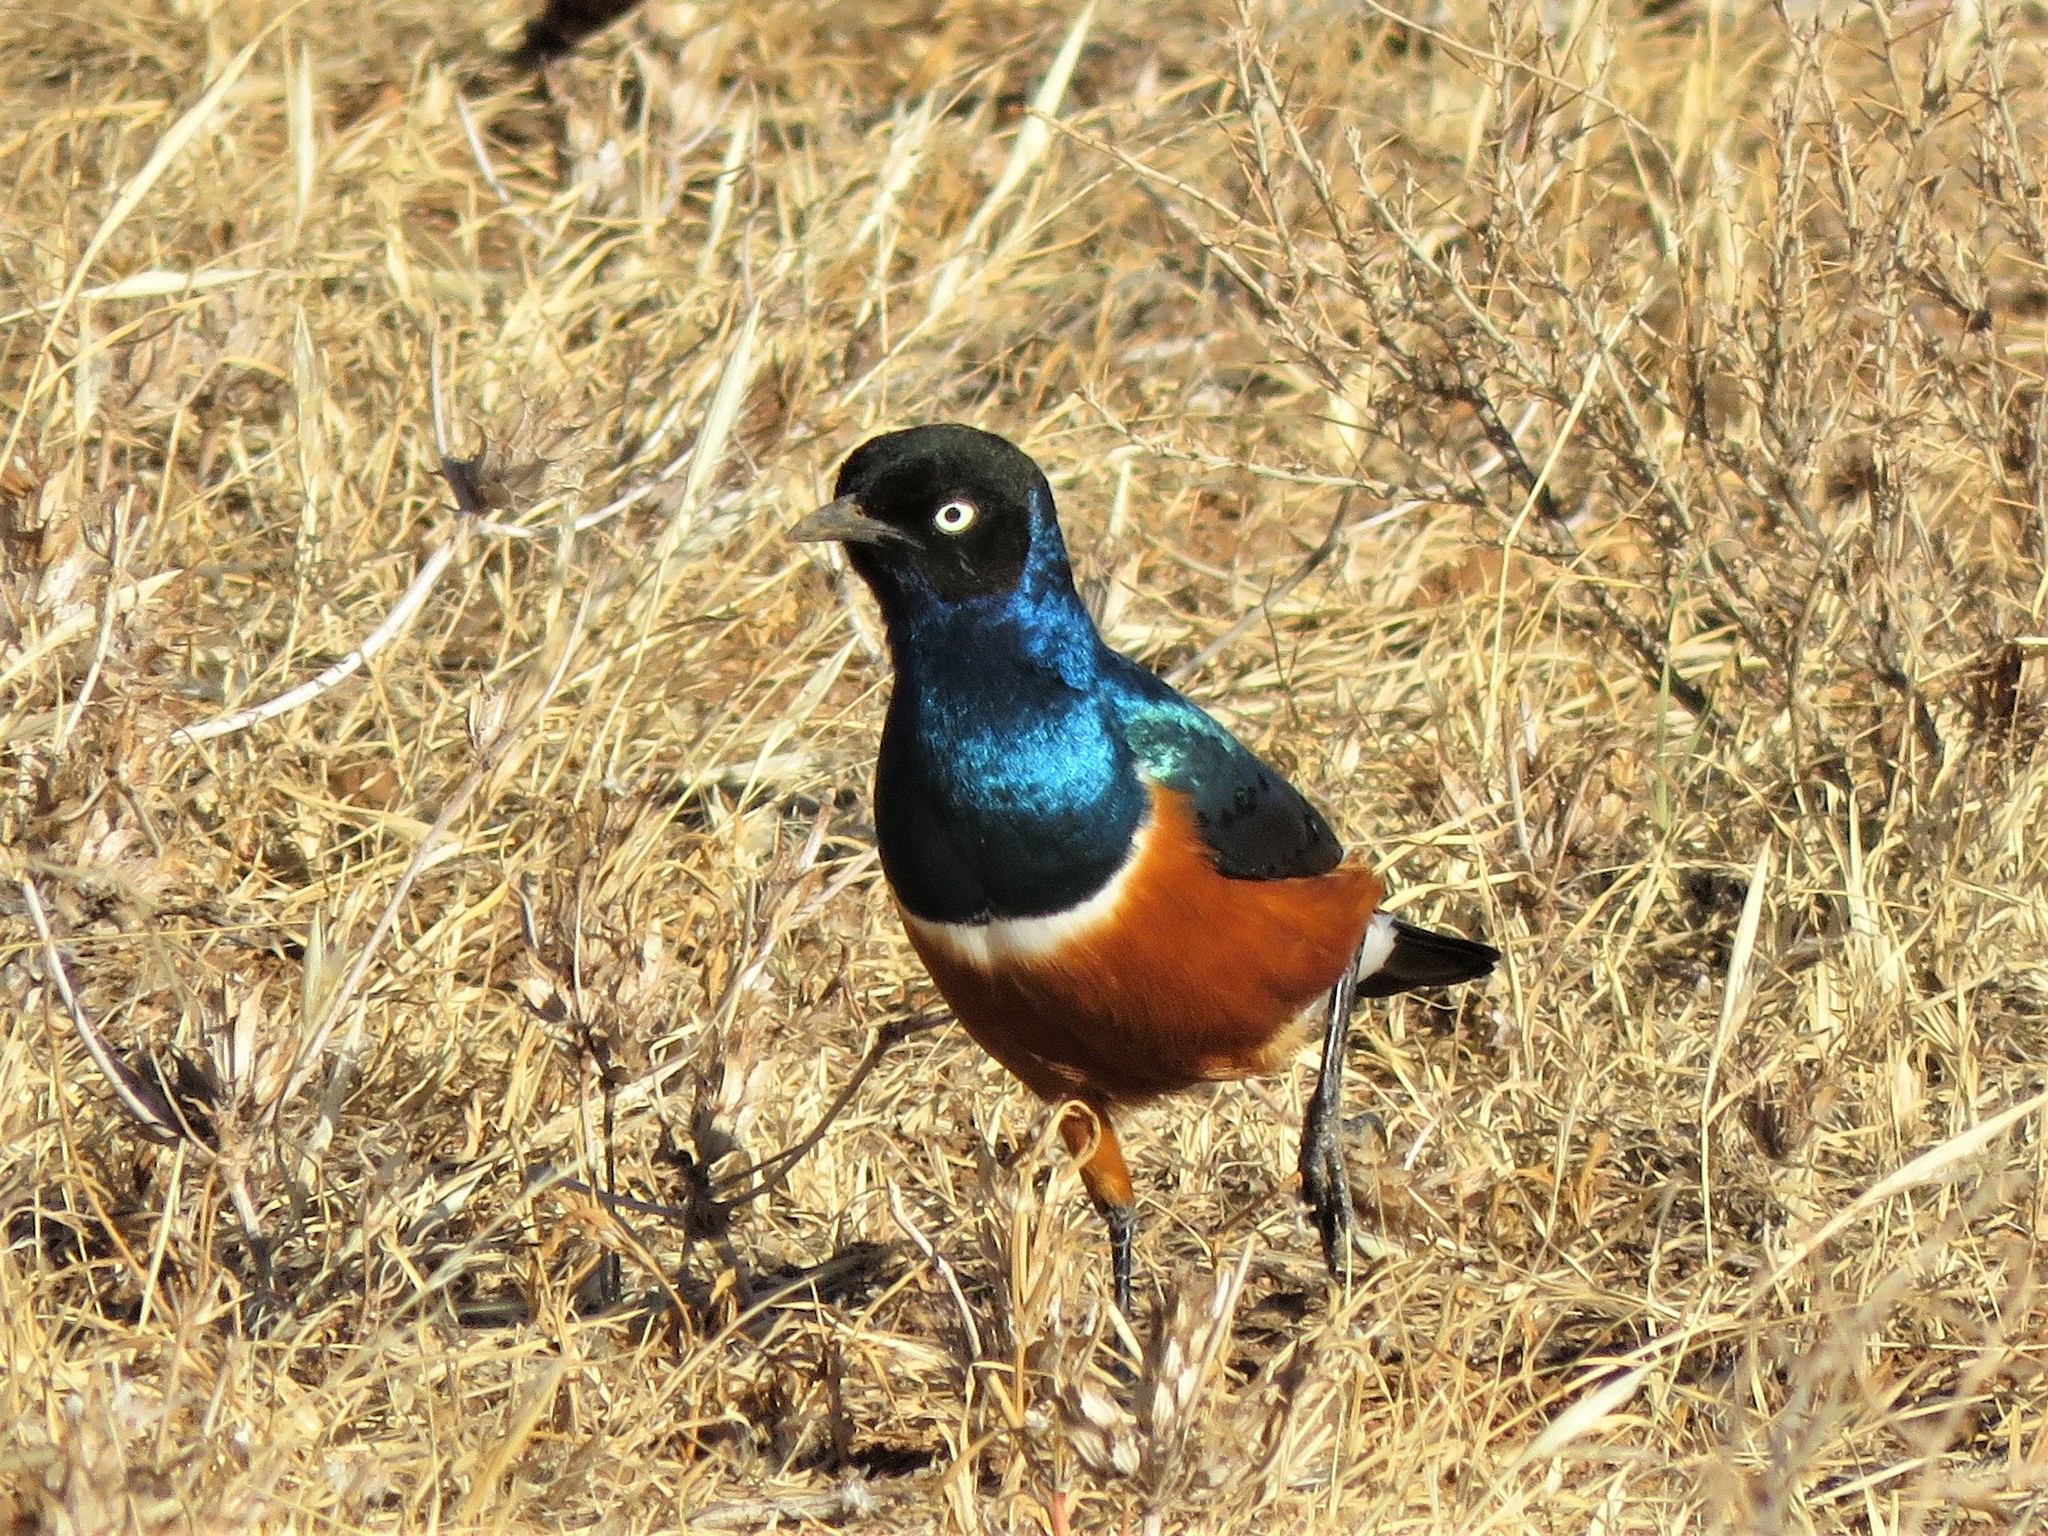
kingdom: Animalia
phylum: Chordata
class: Aves
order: Passeriformes
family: Sturnidae
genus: Lamprotornis
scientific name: Lamprotornis superbus
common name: Superb starling
